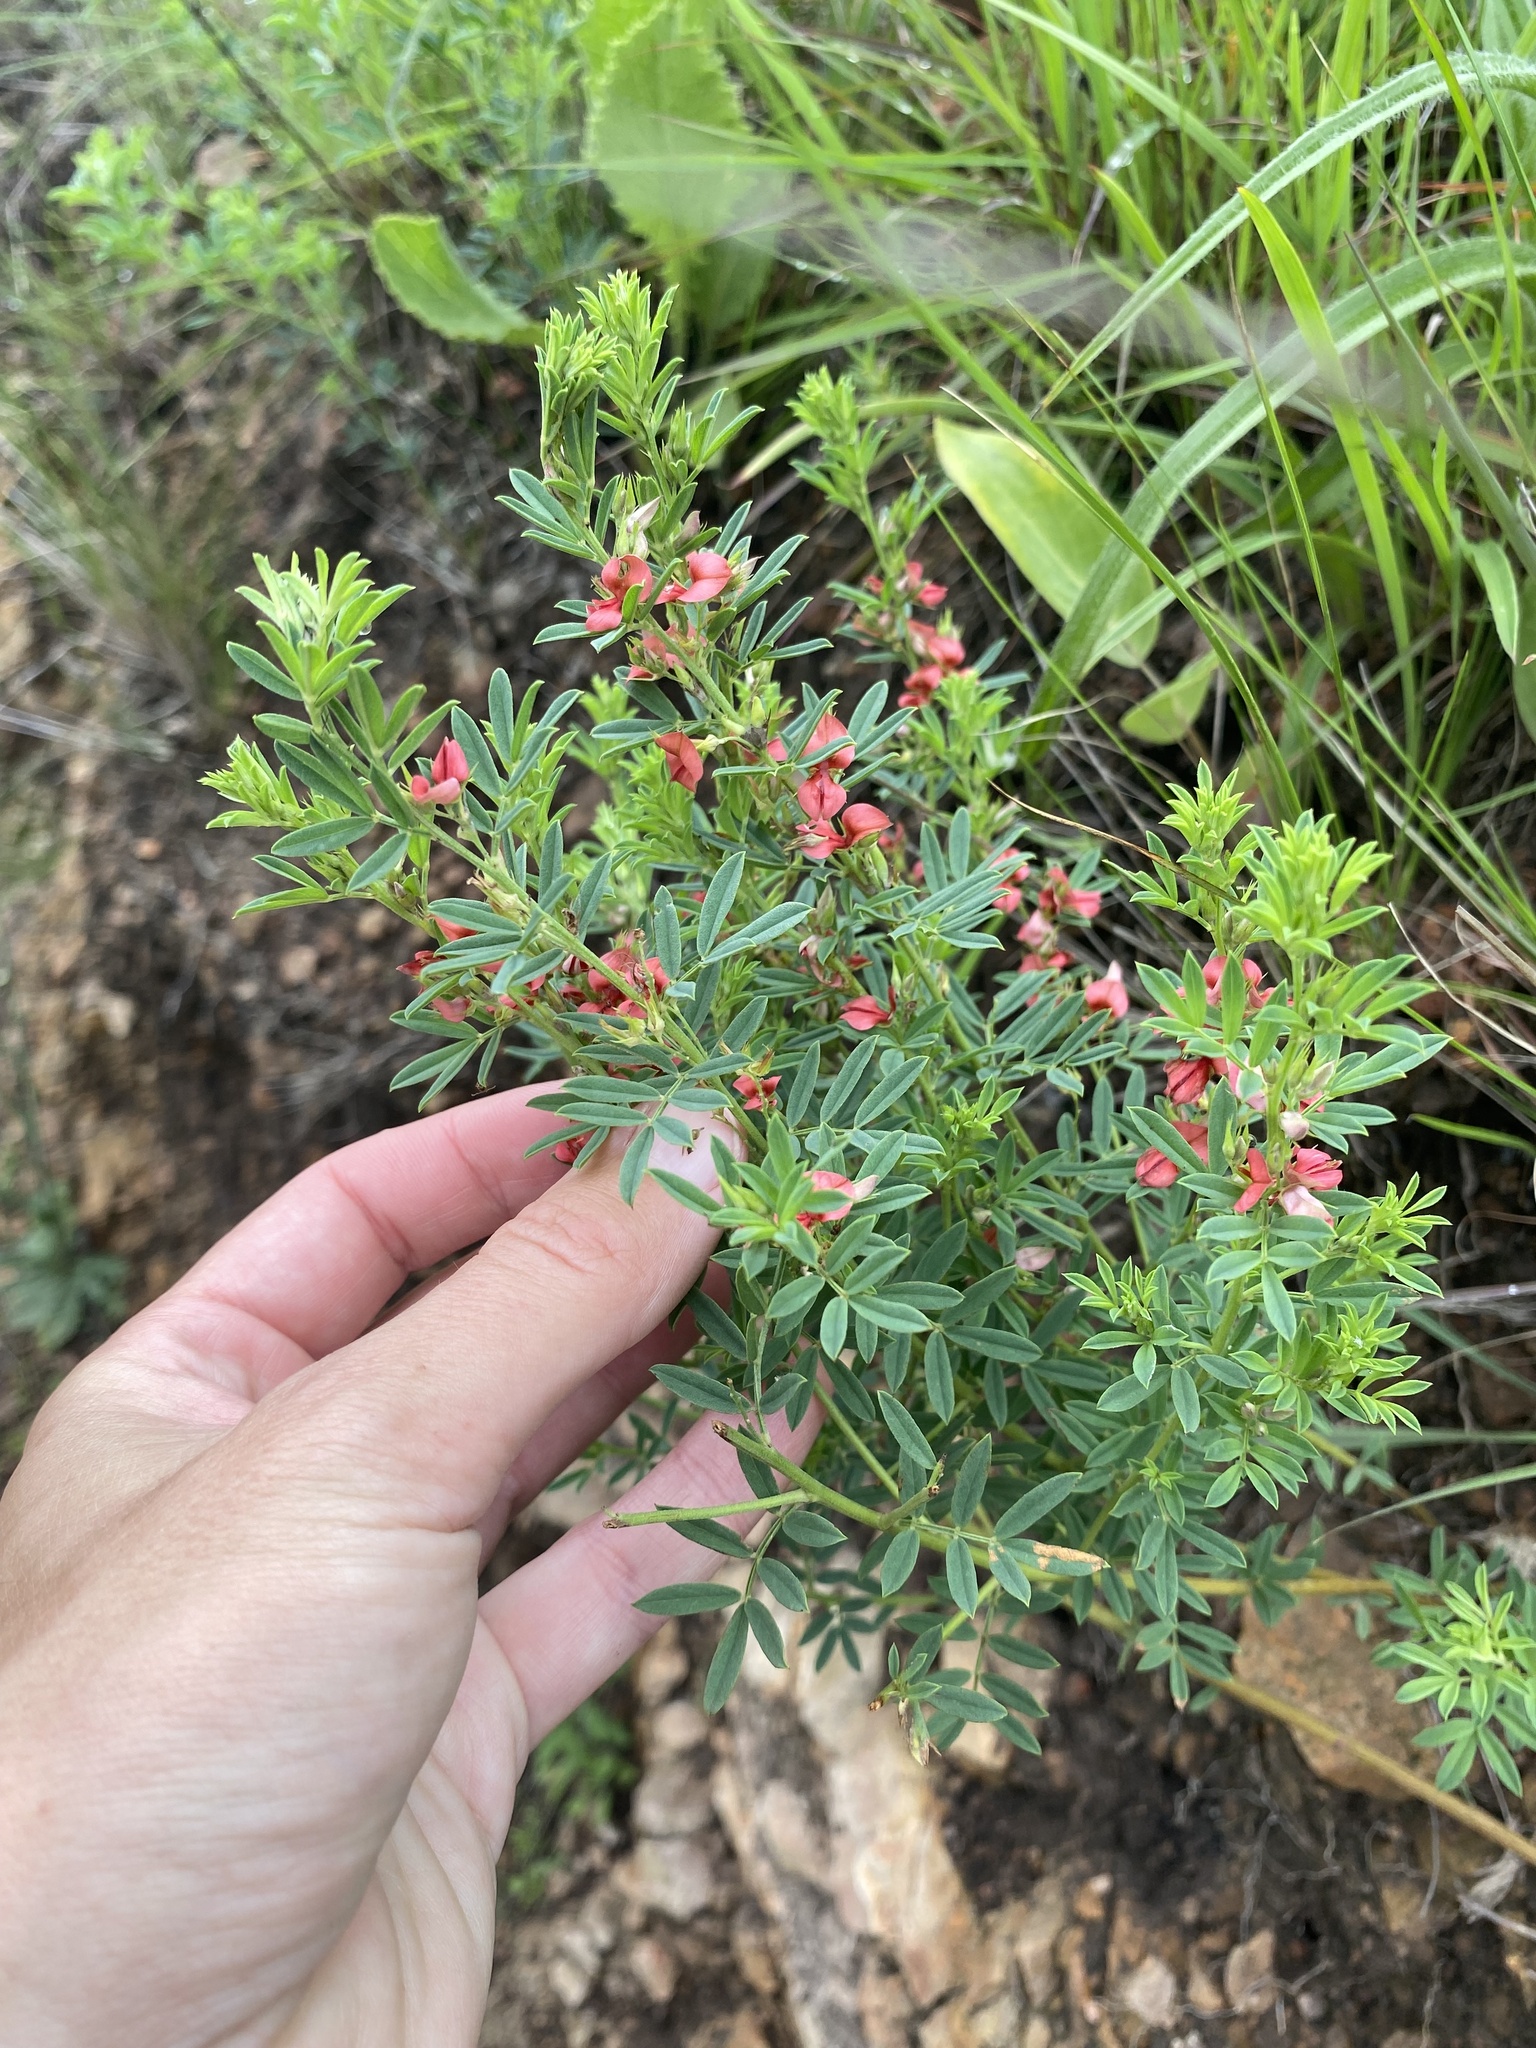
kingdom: Plantae
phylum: Tracheophyta
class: Magnoliopsida
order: Fabales
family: Fabaceae
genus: Indigofera
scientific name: Indigofera hilaris
